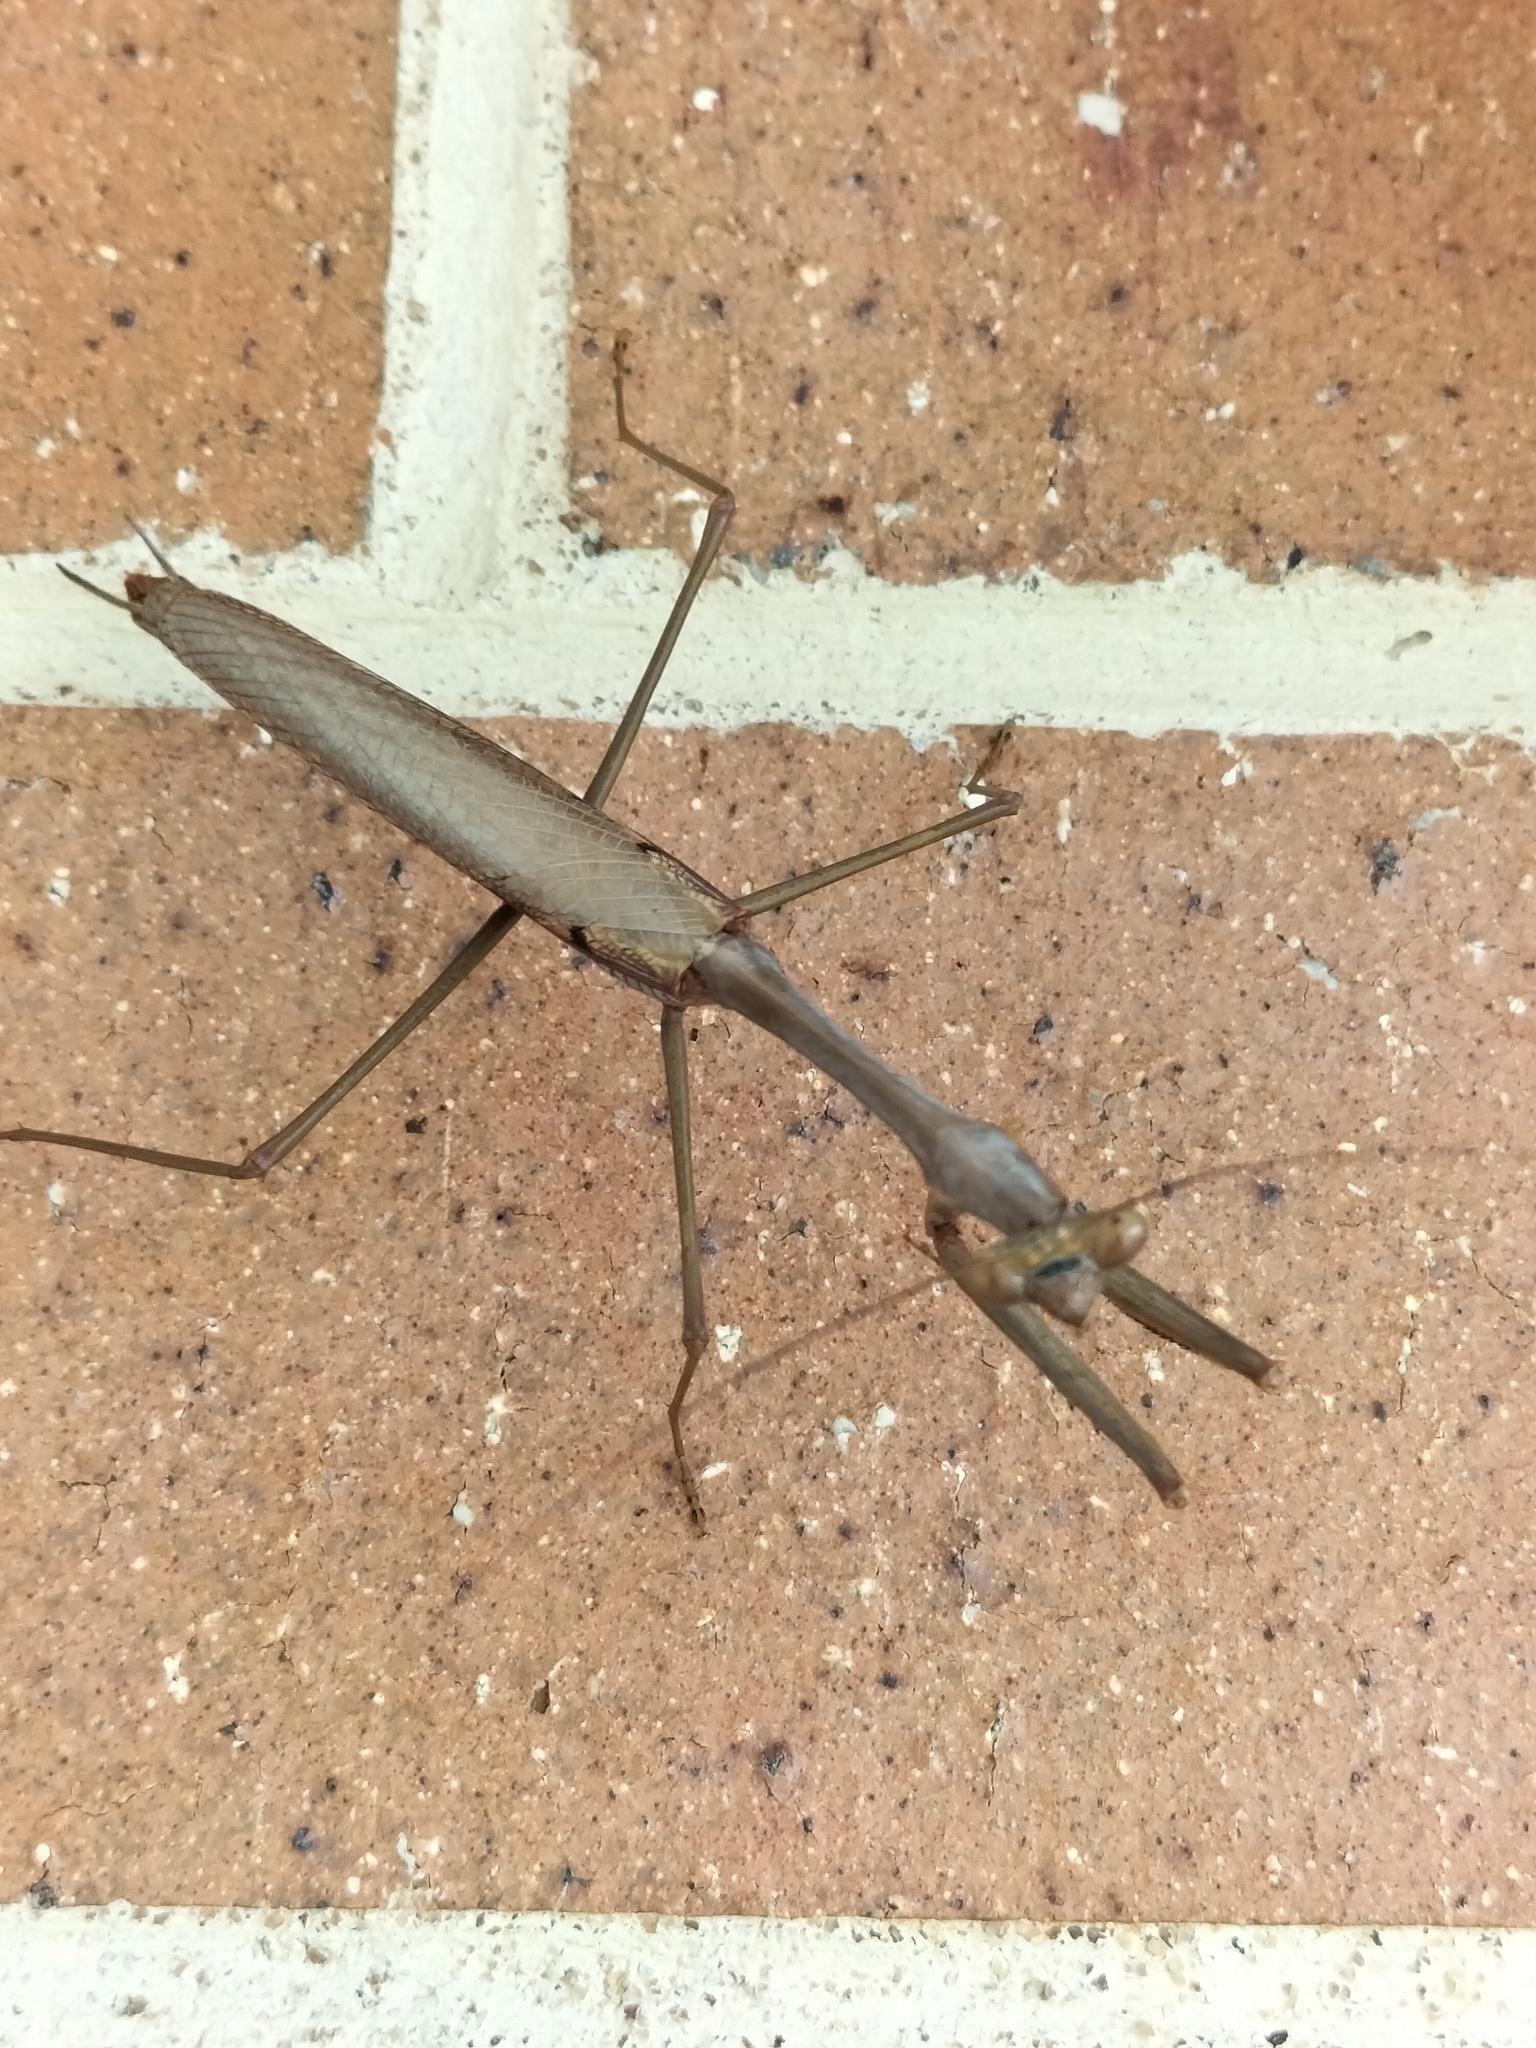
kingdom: Animalia
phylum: Arthropoda
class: Insecta
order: Mantodea
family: Mantidae
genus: Archimantis
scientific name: Archimantis latistyla
